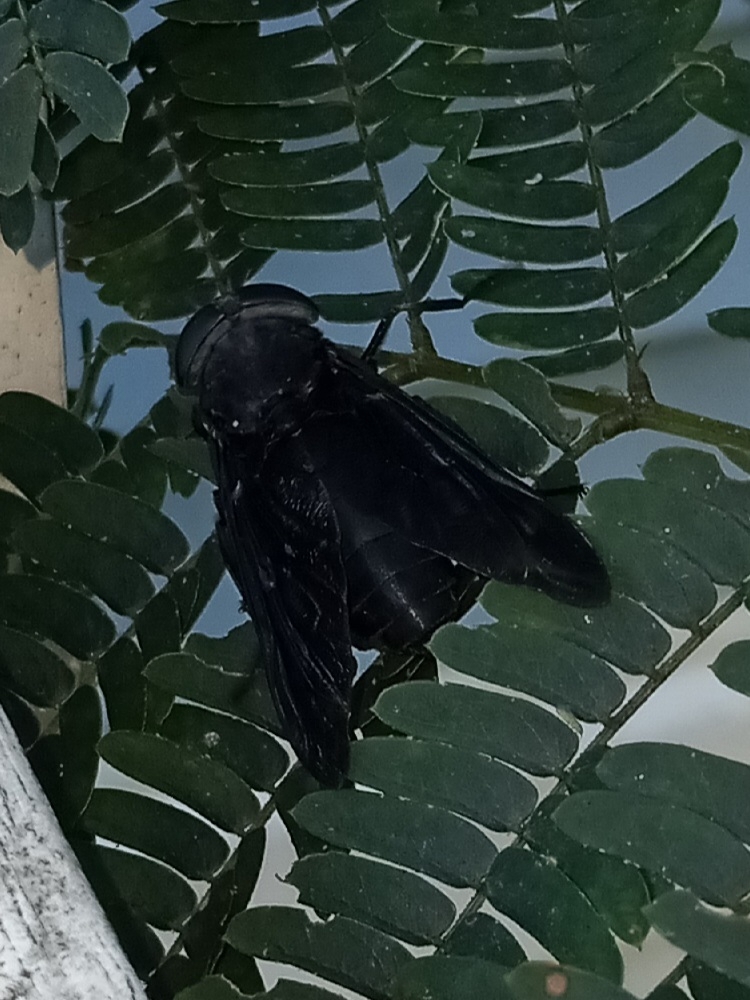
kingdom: Animalia
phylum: Arthropoda
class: Insecta
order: Diptera
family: Tabanidae
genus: Tabanus
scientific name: Tabanus atratus
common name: Black horse fly
